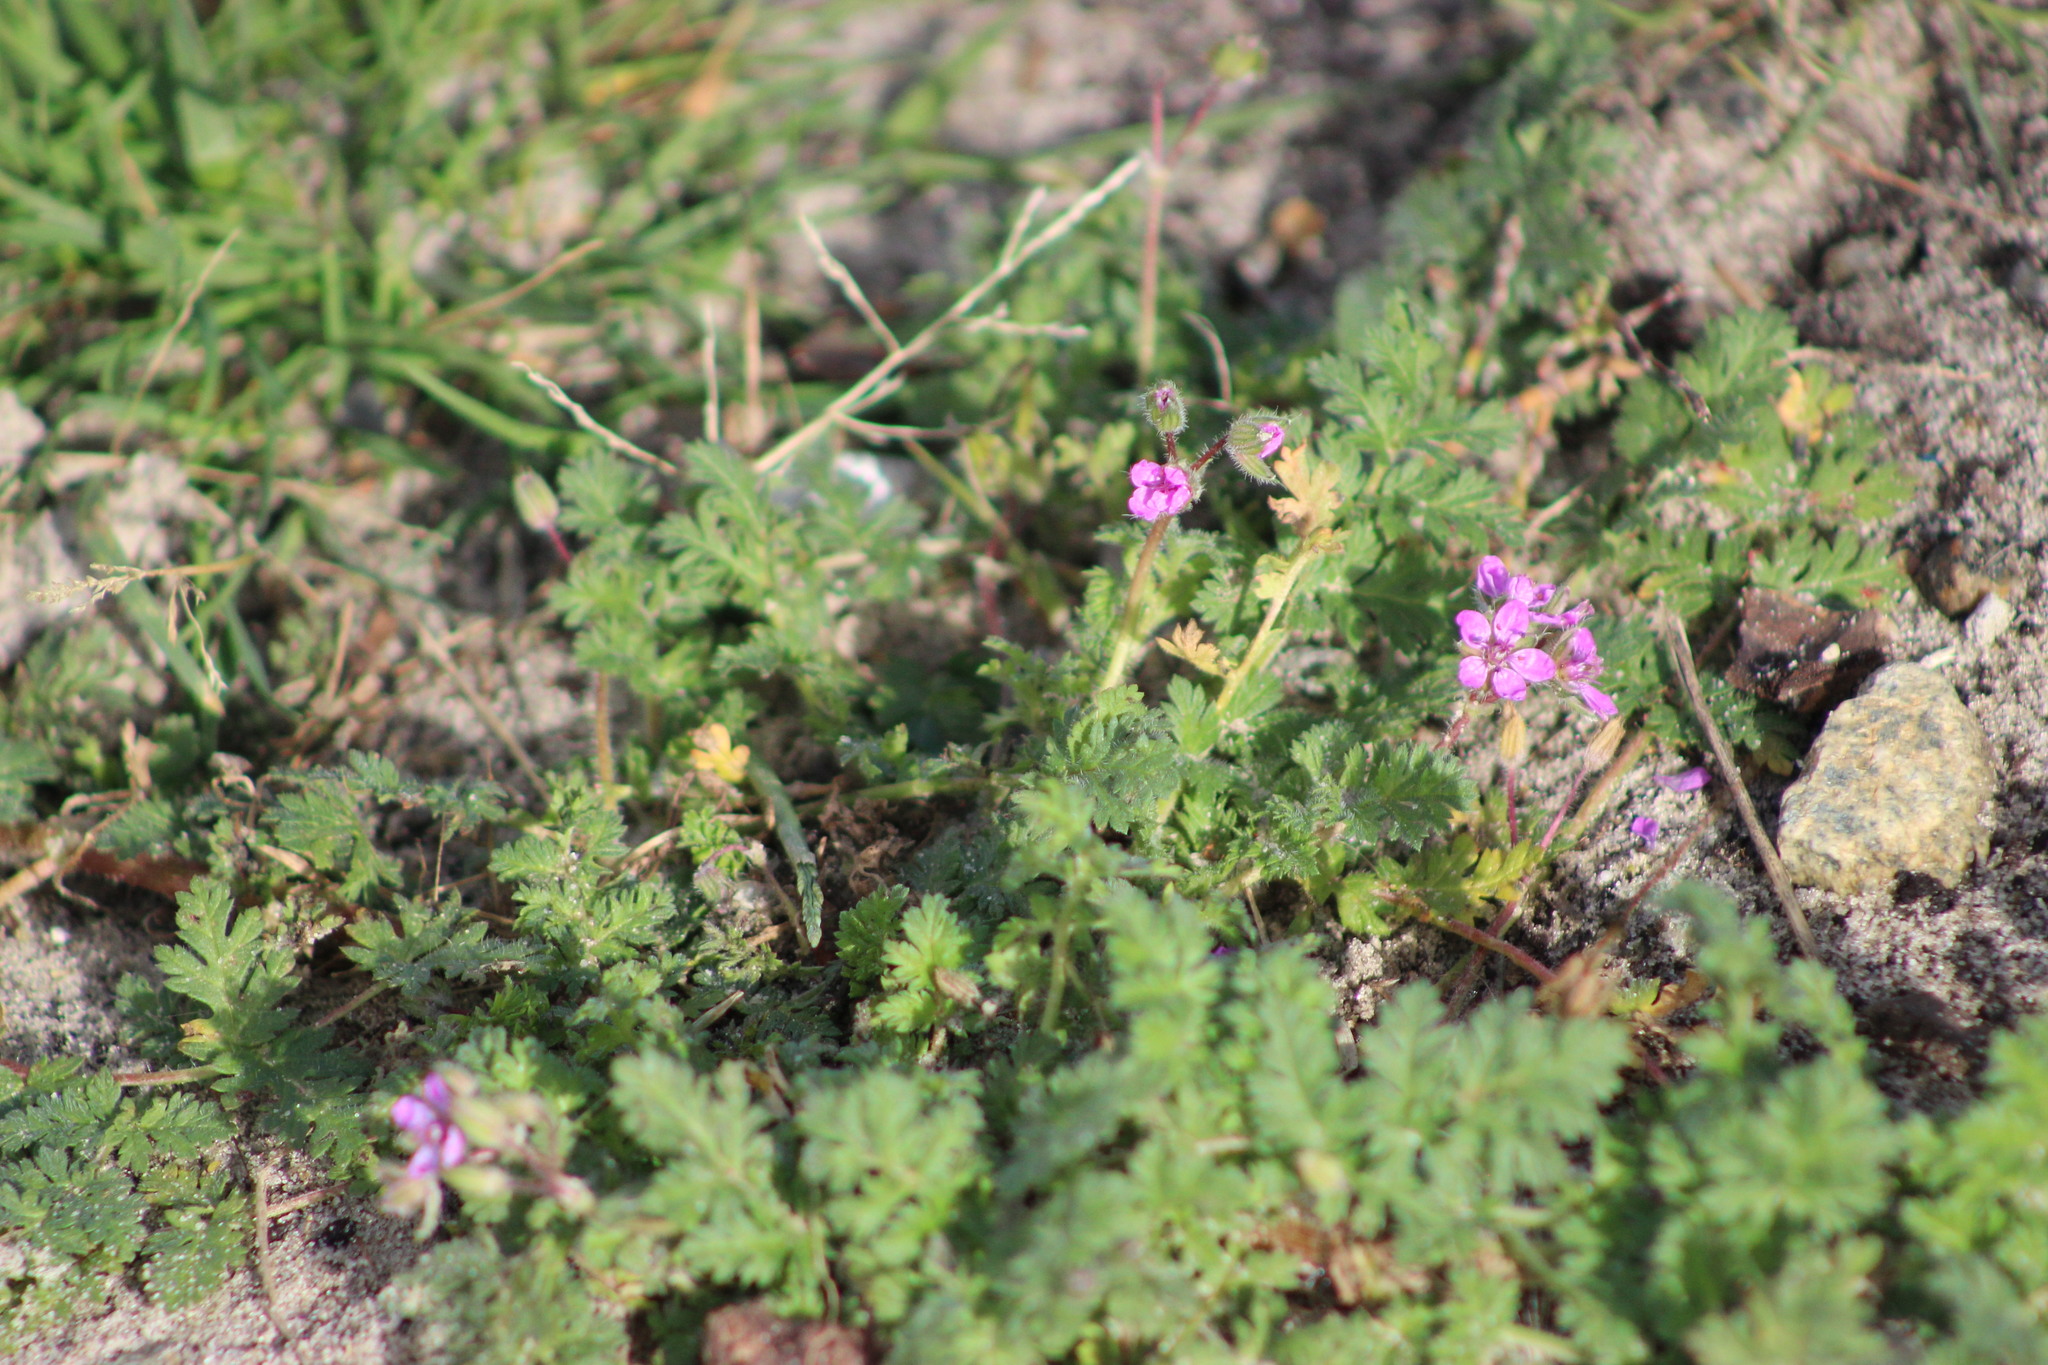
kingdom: Plantae
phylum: Tracheophyta
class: Magnoliopsida
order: Geraniales
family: Geraniaceae
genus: Erodium
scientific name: Erodium cicutarium
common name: Common stork's-bill
